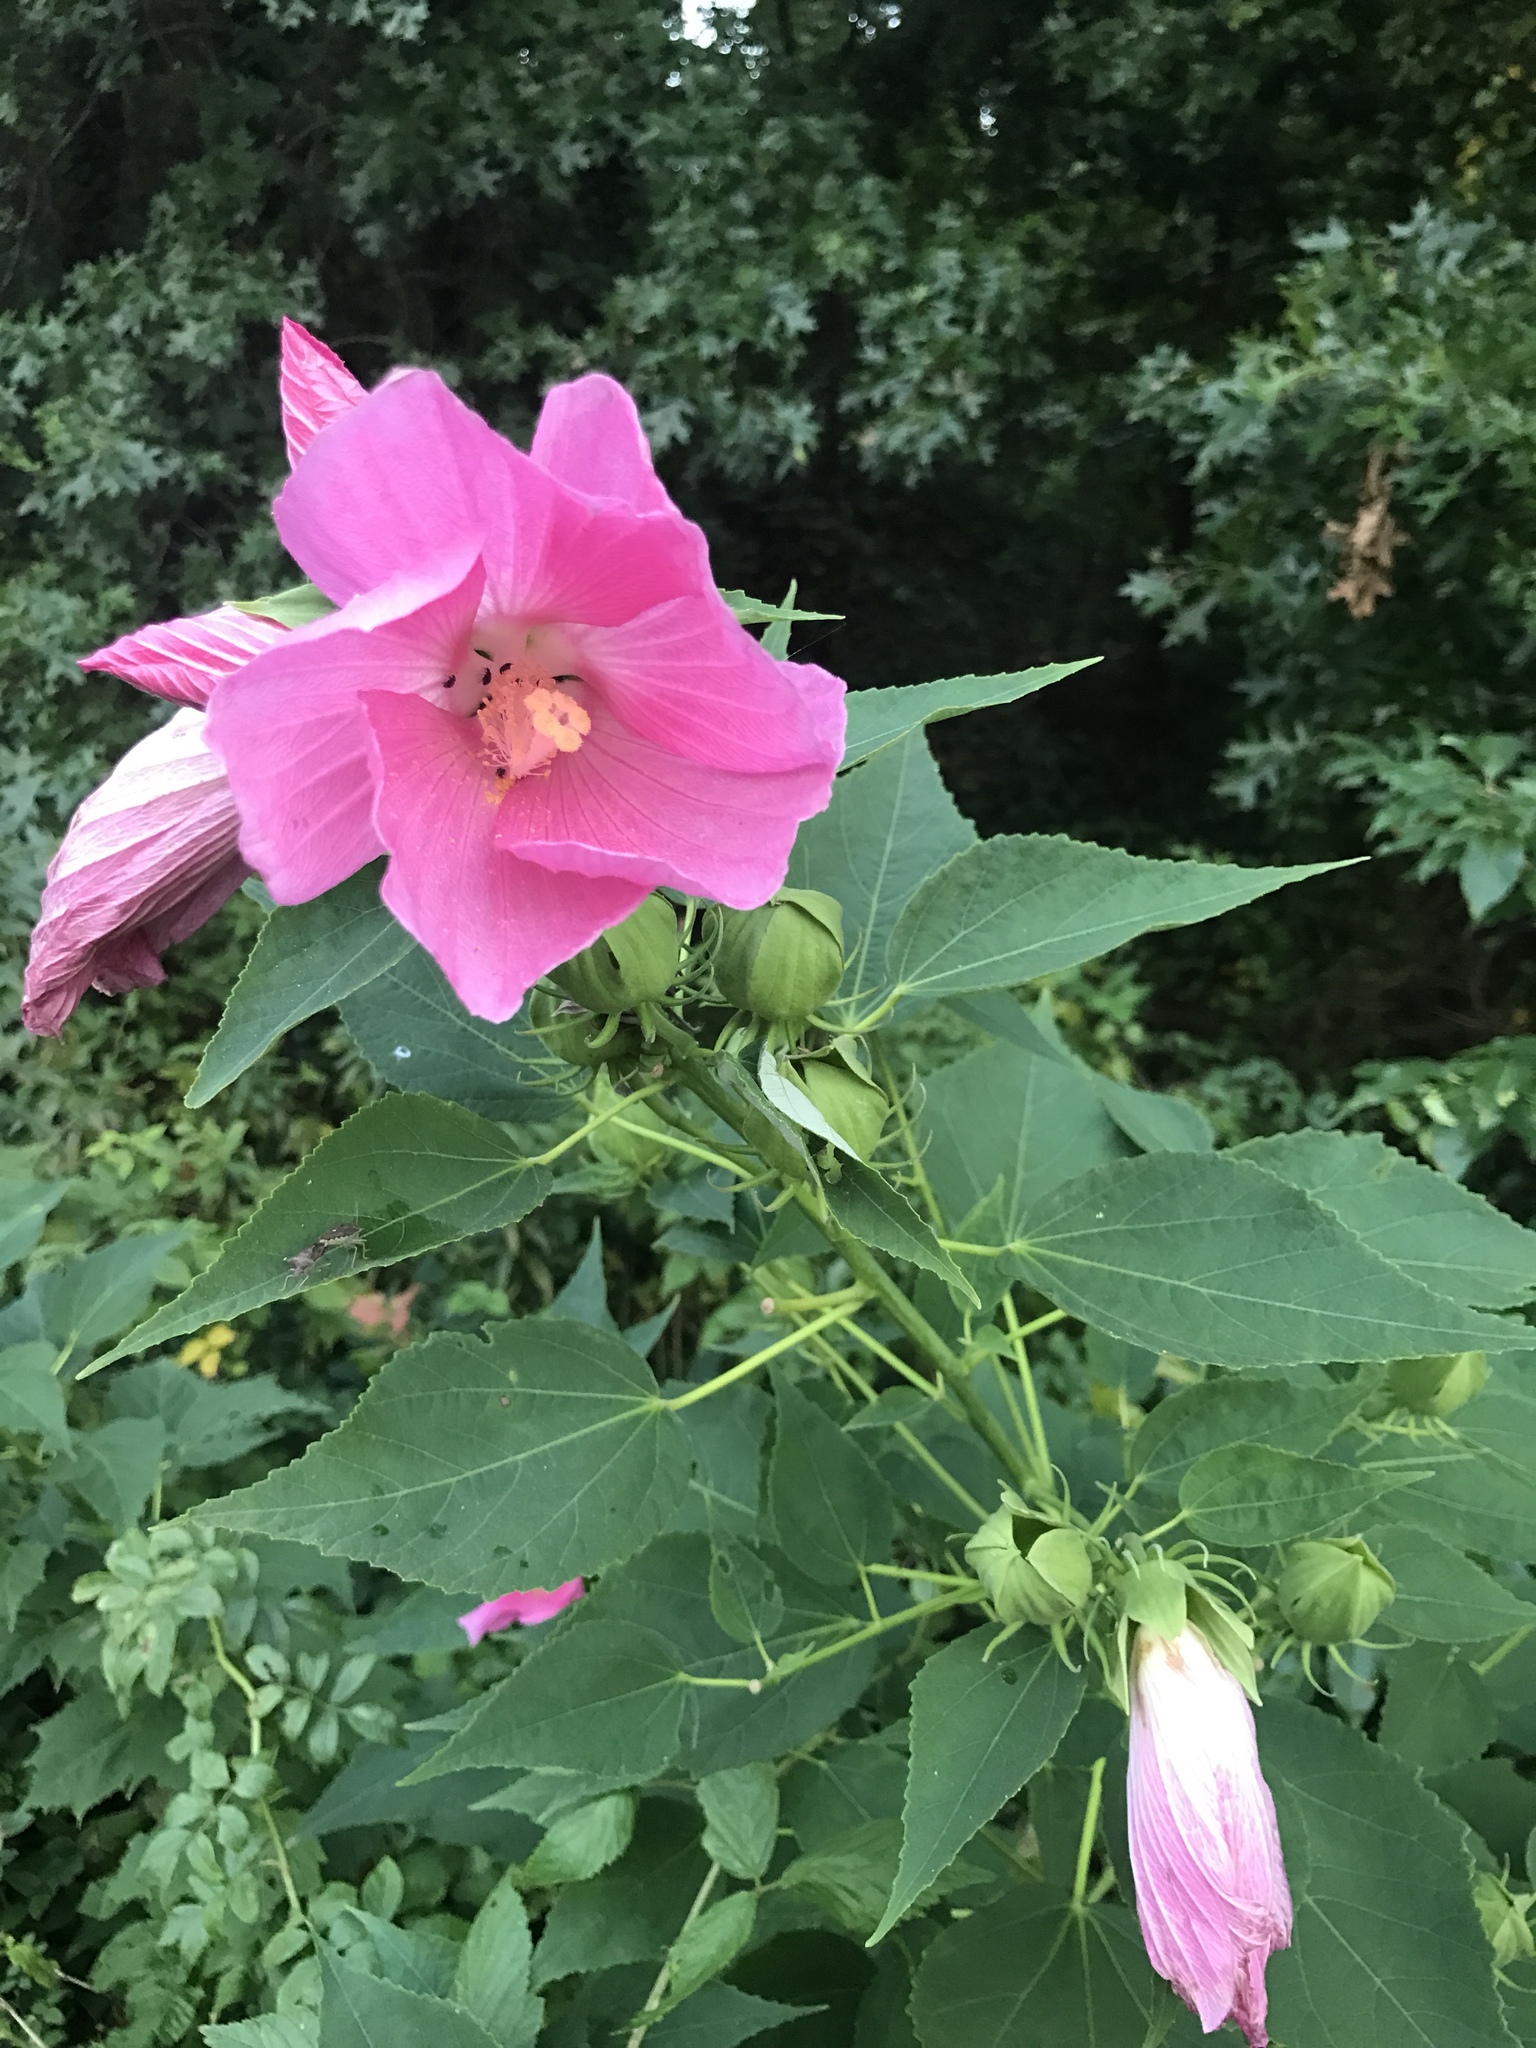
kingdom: Plantae
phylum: Tracheophyta
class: Magnoliopsida
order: Malvales
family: Malvaceae
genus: Hibiscus
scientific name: Hibiscus moscheutos
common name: Common rose-mallow
